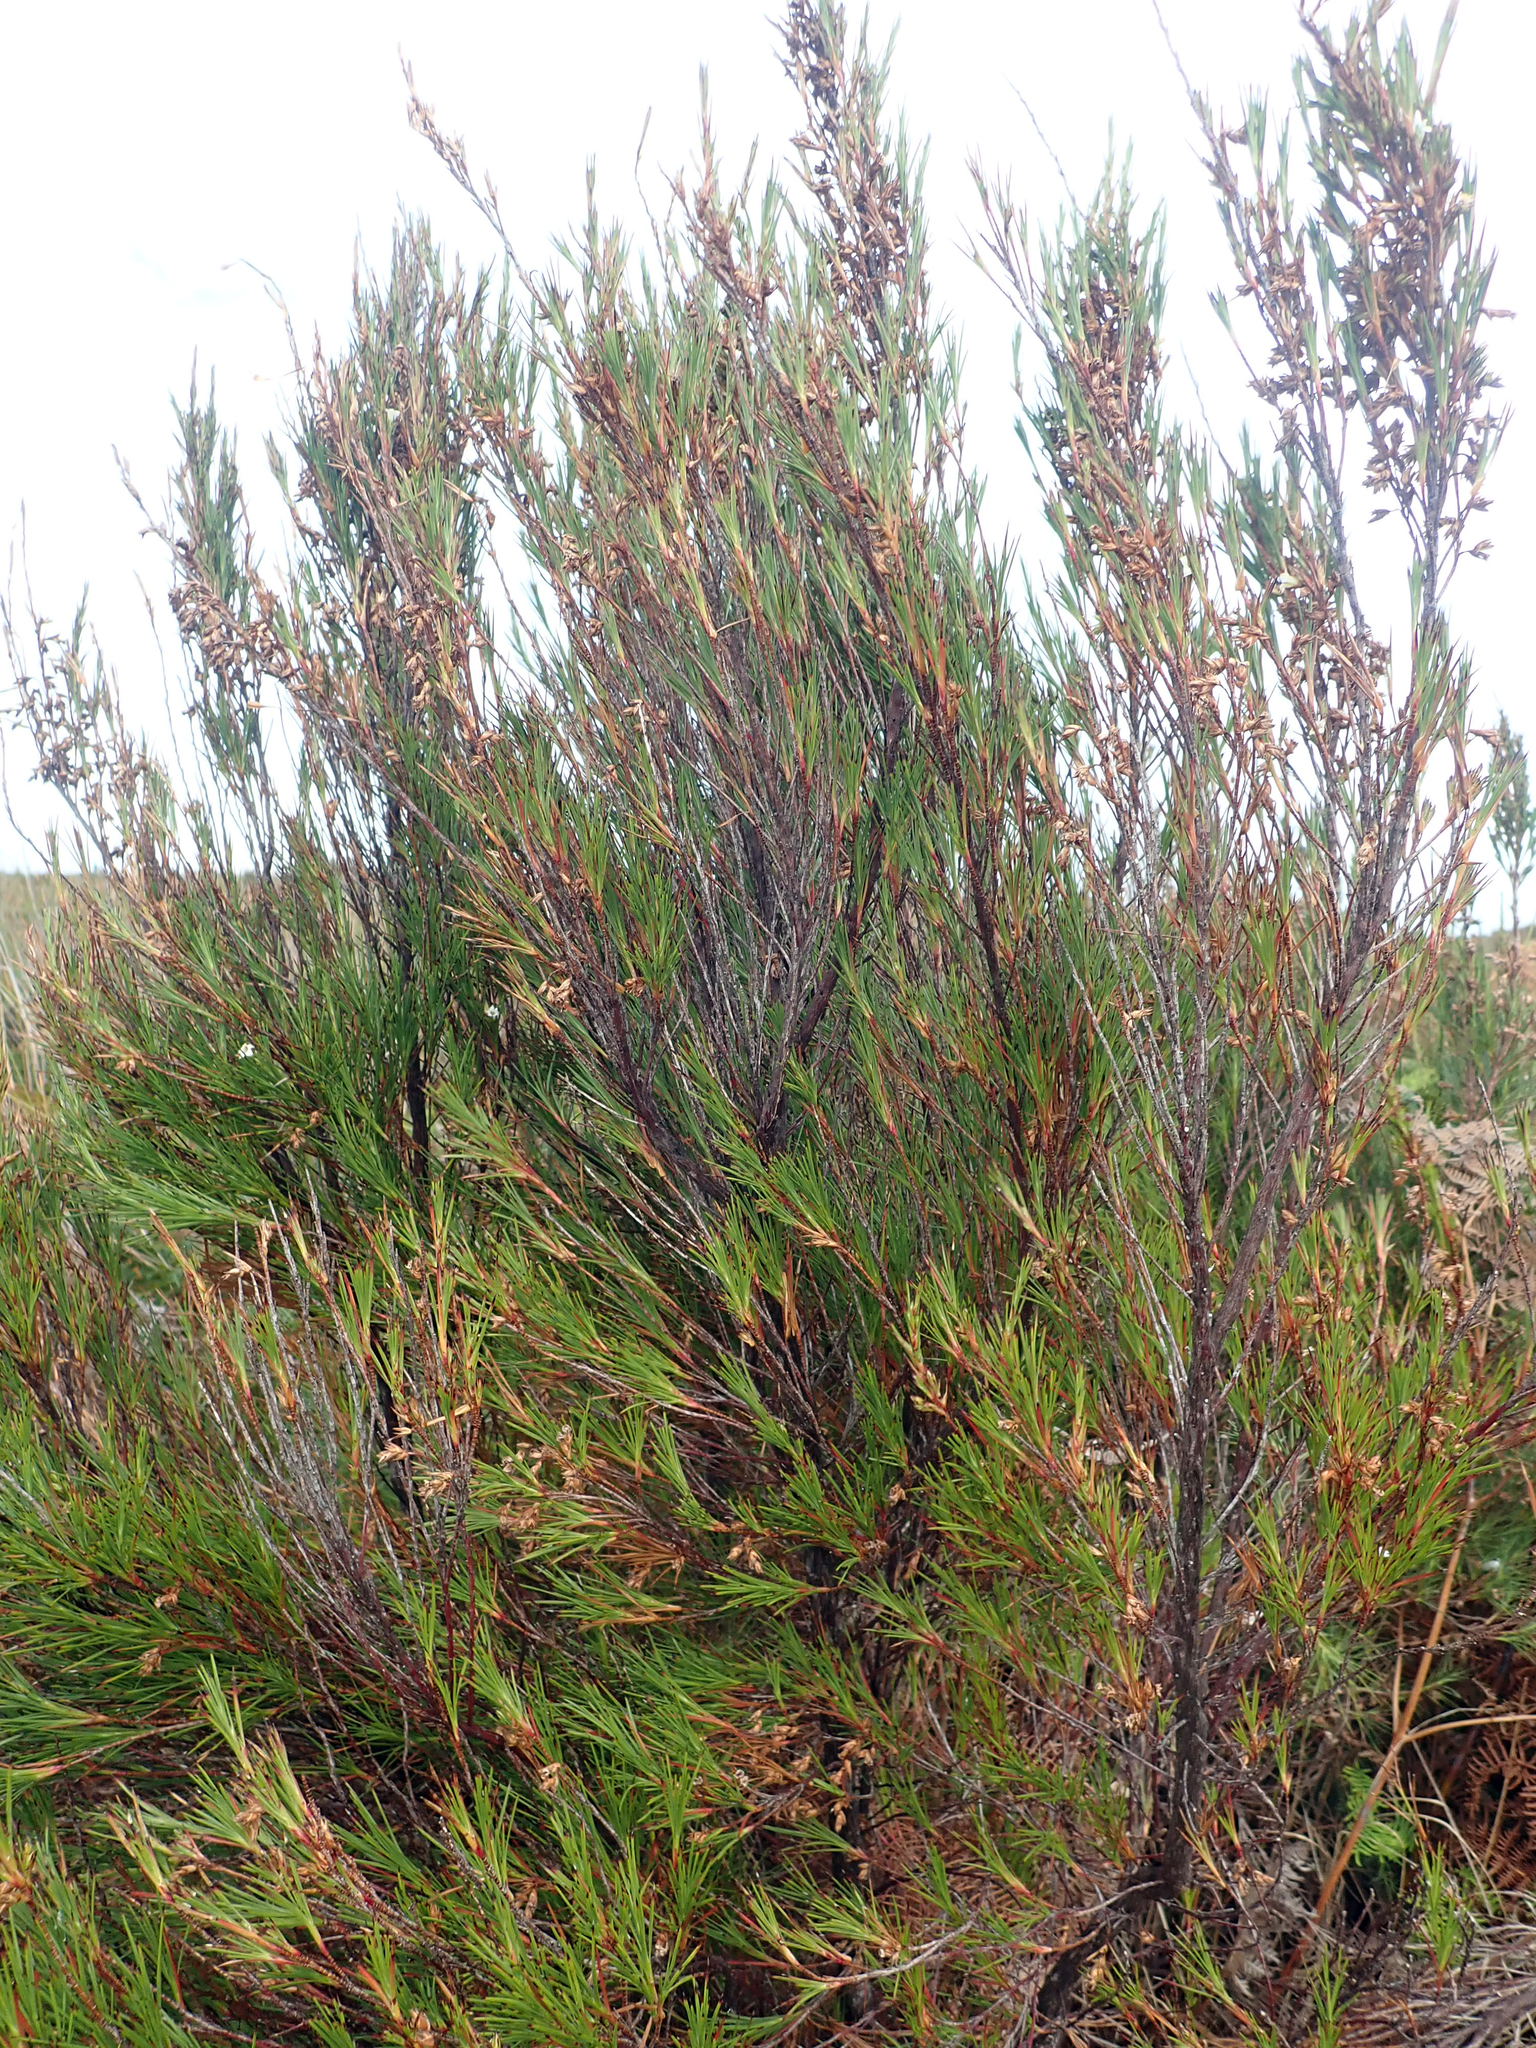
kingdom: Plantae
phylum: Tracheophyta
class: Magnoliopsida
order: Ericales
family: Ericaceae
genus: Dracophyllum
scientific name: Dracophyllum scoparium
